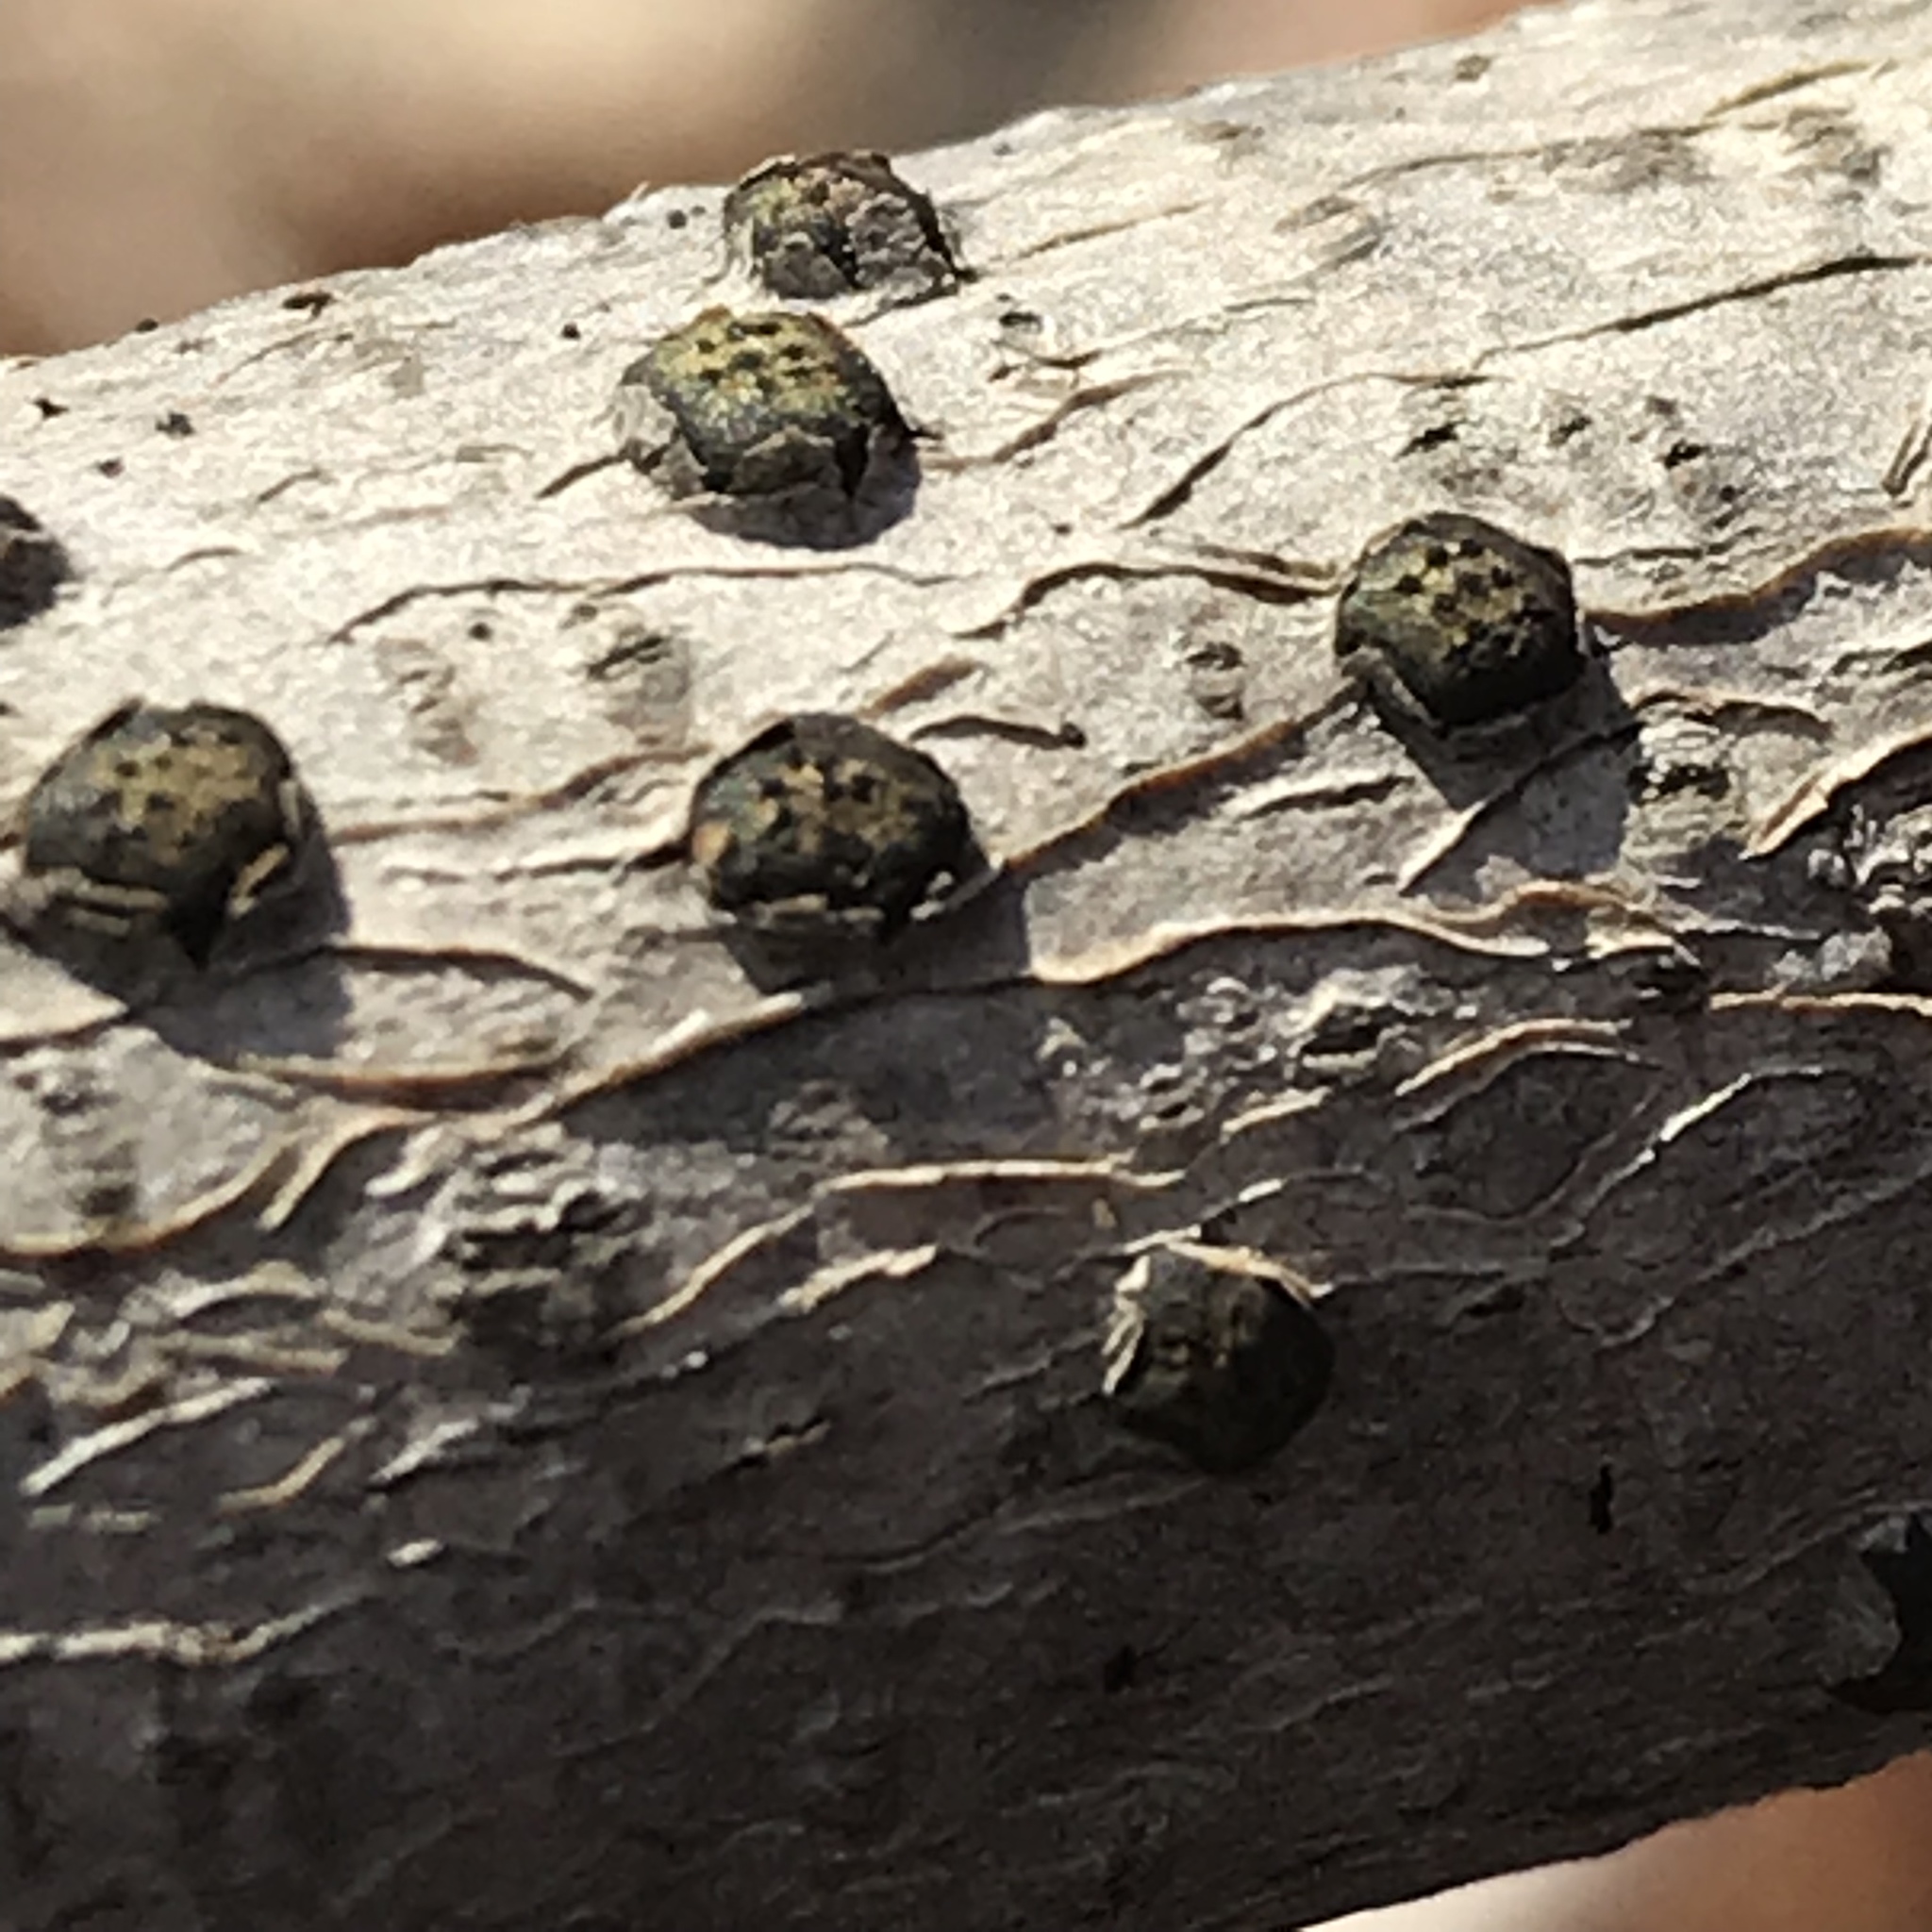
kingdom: Fungi
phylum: Ascomycota
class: Sordariomycetes
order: Xylariales
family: Diatrypaceae
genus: Diatrype
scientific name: Diatrype virescens
